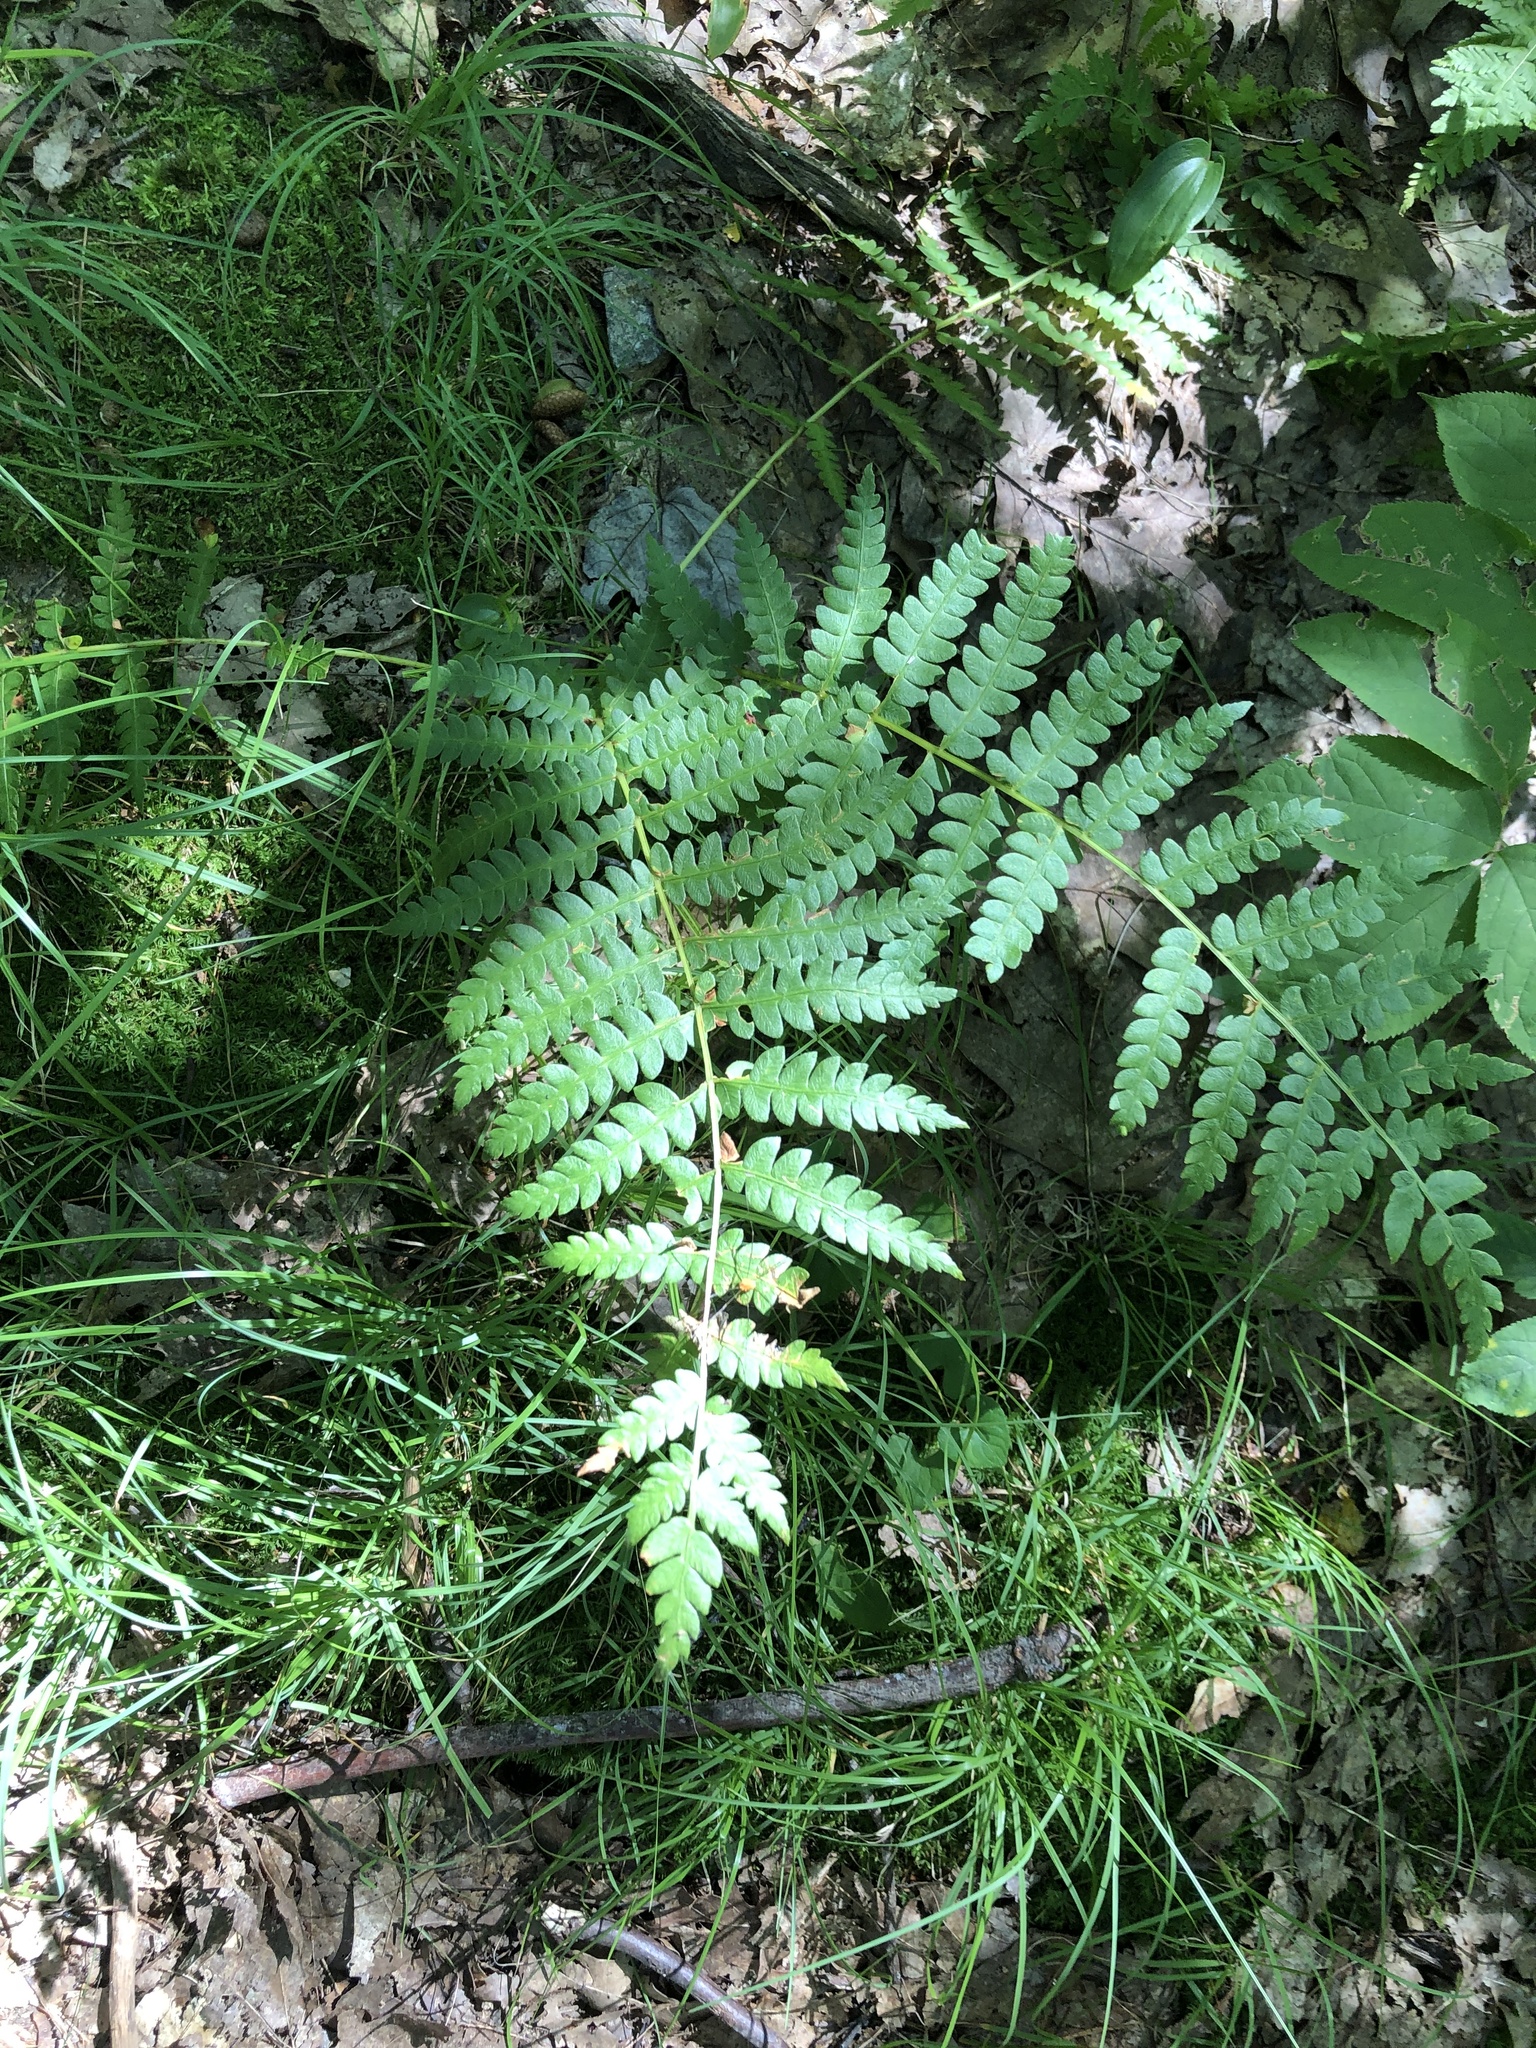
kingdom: Plantae
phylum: Tracheophyta
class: Polypodiopsida
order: Osmundales
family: Osmundaceae
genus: Osmundastrum
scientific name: Osmundastrum cinnamomeum
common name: Cinnamon fern
